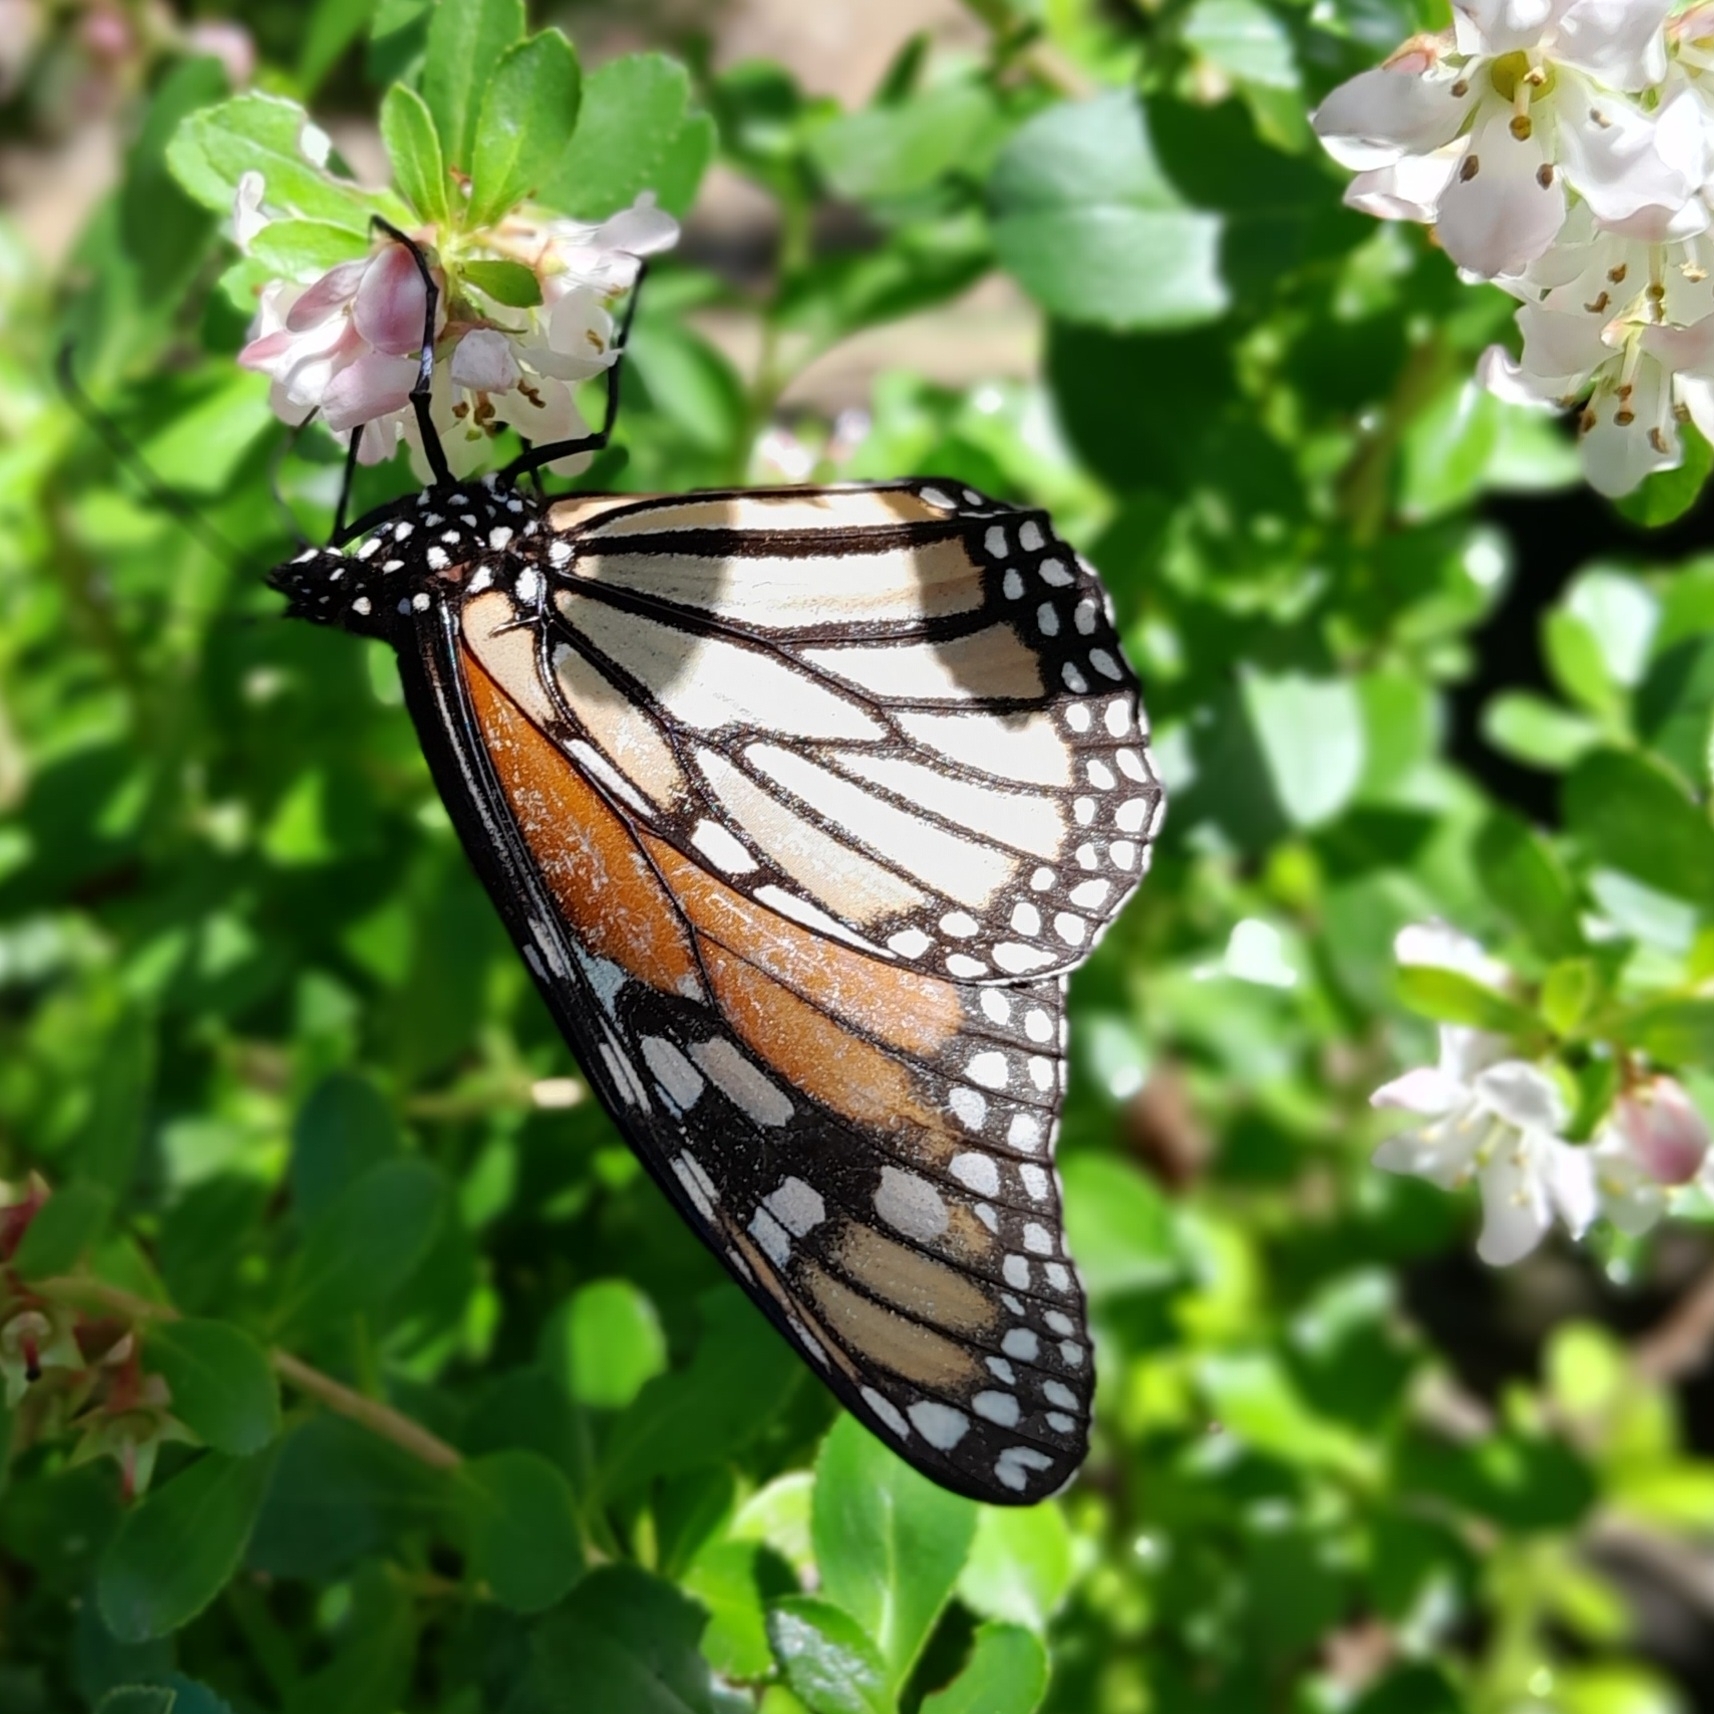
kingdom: Animalia
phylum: Arthropoda
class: Insecta
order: Lepidoptera
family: Nymphalidae
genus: Danaus
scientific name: Danaus plexippus
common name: Monarch
